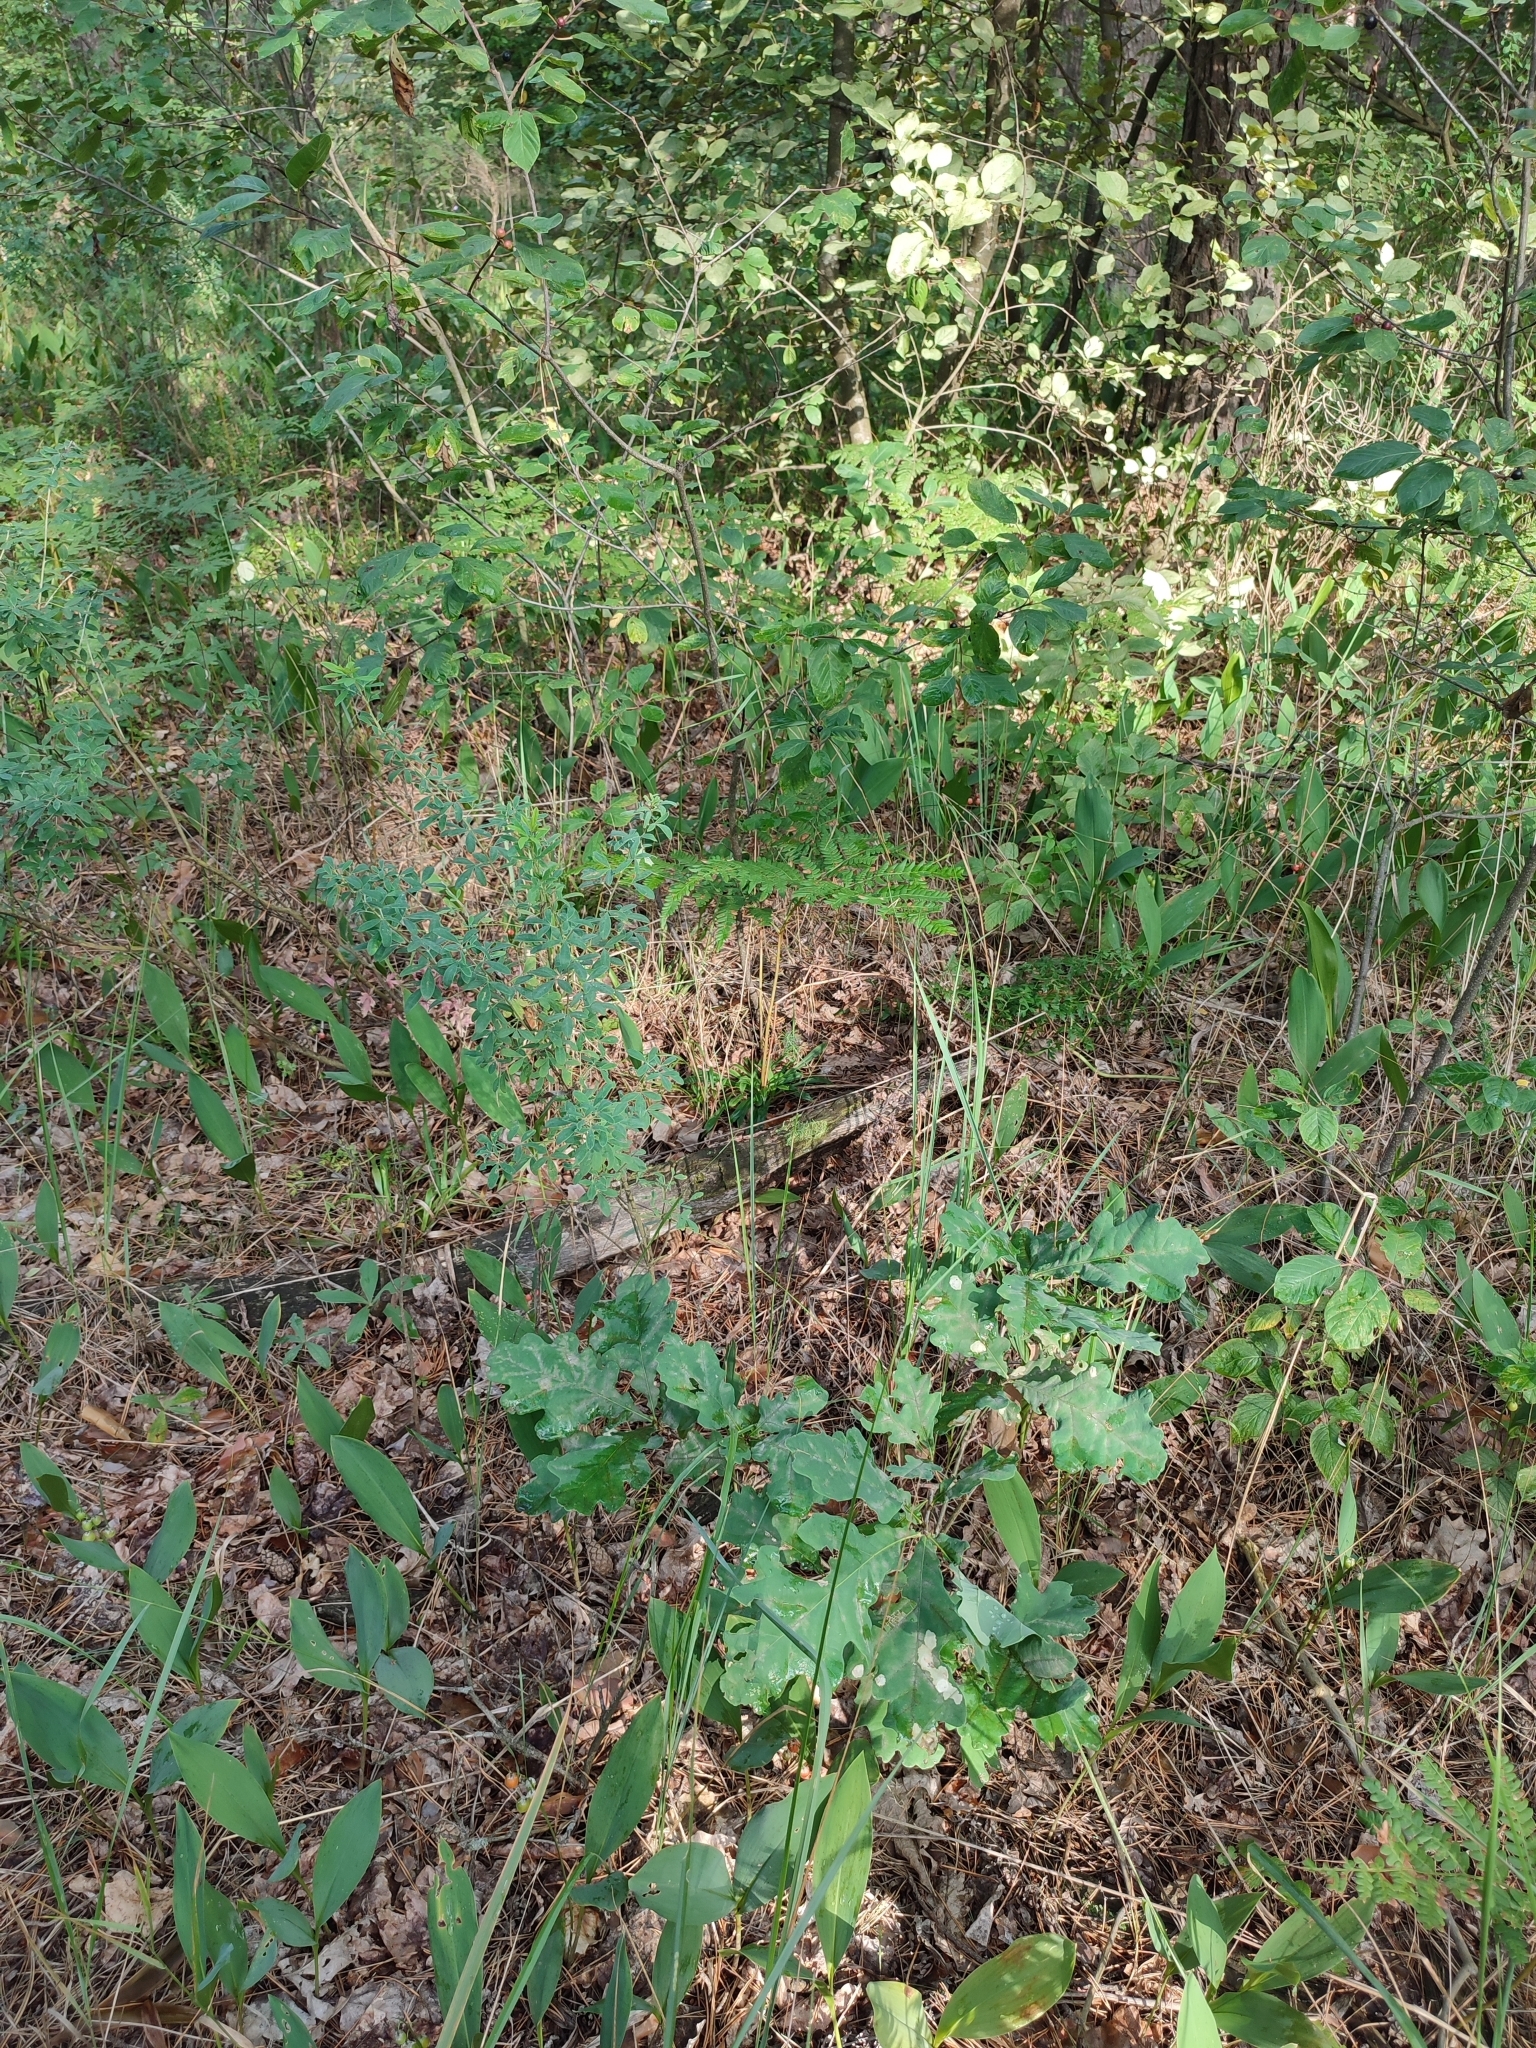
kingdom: Plantae
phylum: Tracheophyta
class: Magnoliopsida
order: Fagales
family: Fagaceae
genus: Quercus
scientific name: Quercus robur
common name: Pedunculate oak
